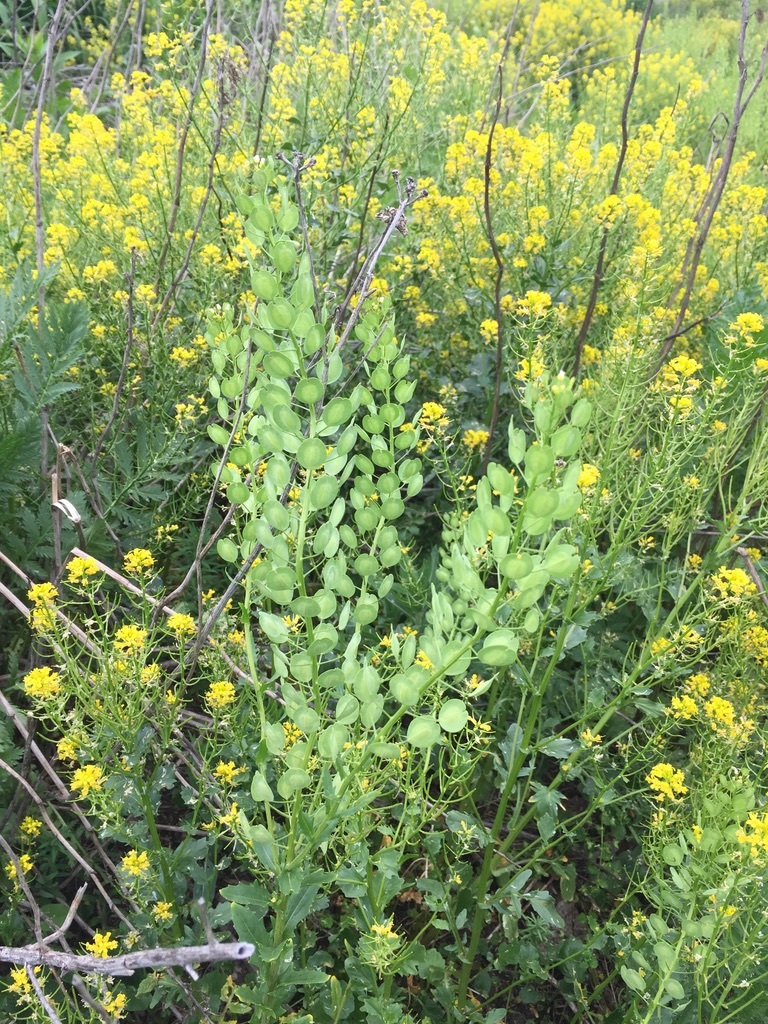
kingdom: Plantae
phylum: Tracheophyta
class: Magnoliopsida
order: Brassicales
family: Brassicaceae
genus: Thlaspi
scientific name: Thlaspi arvense
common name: Field pennycress
